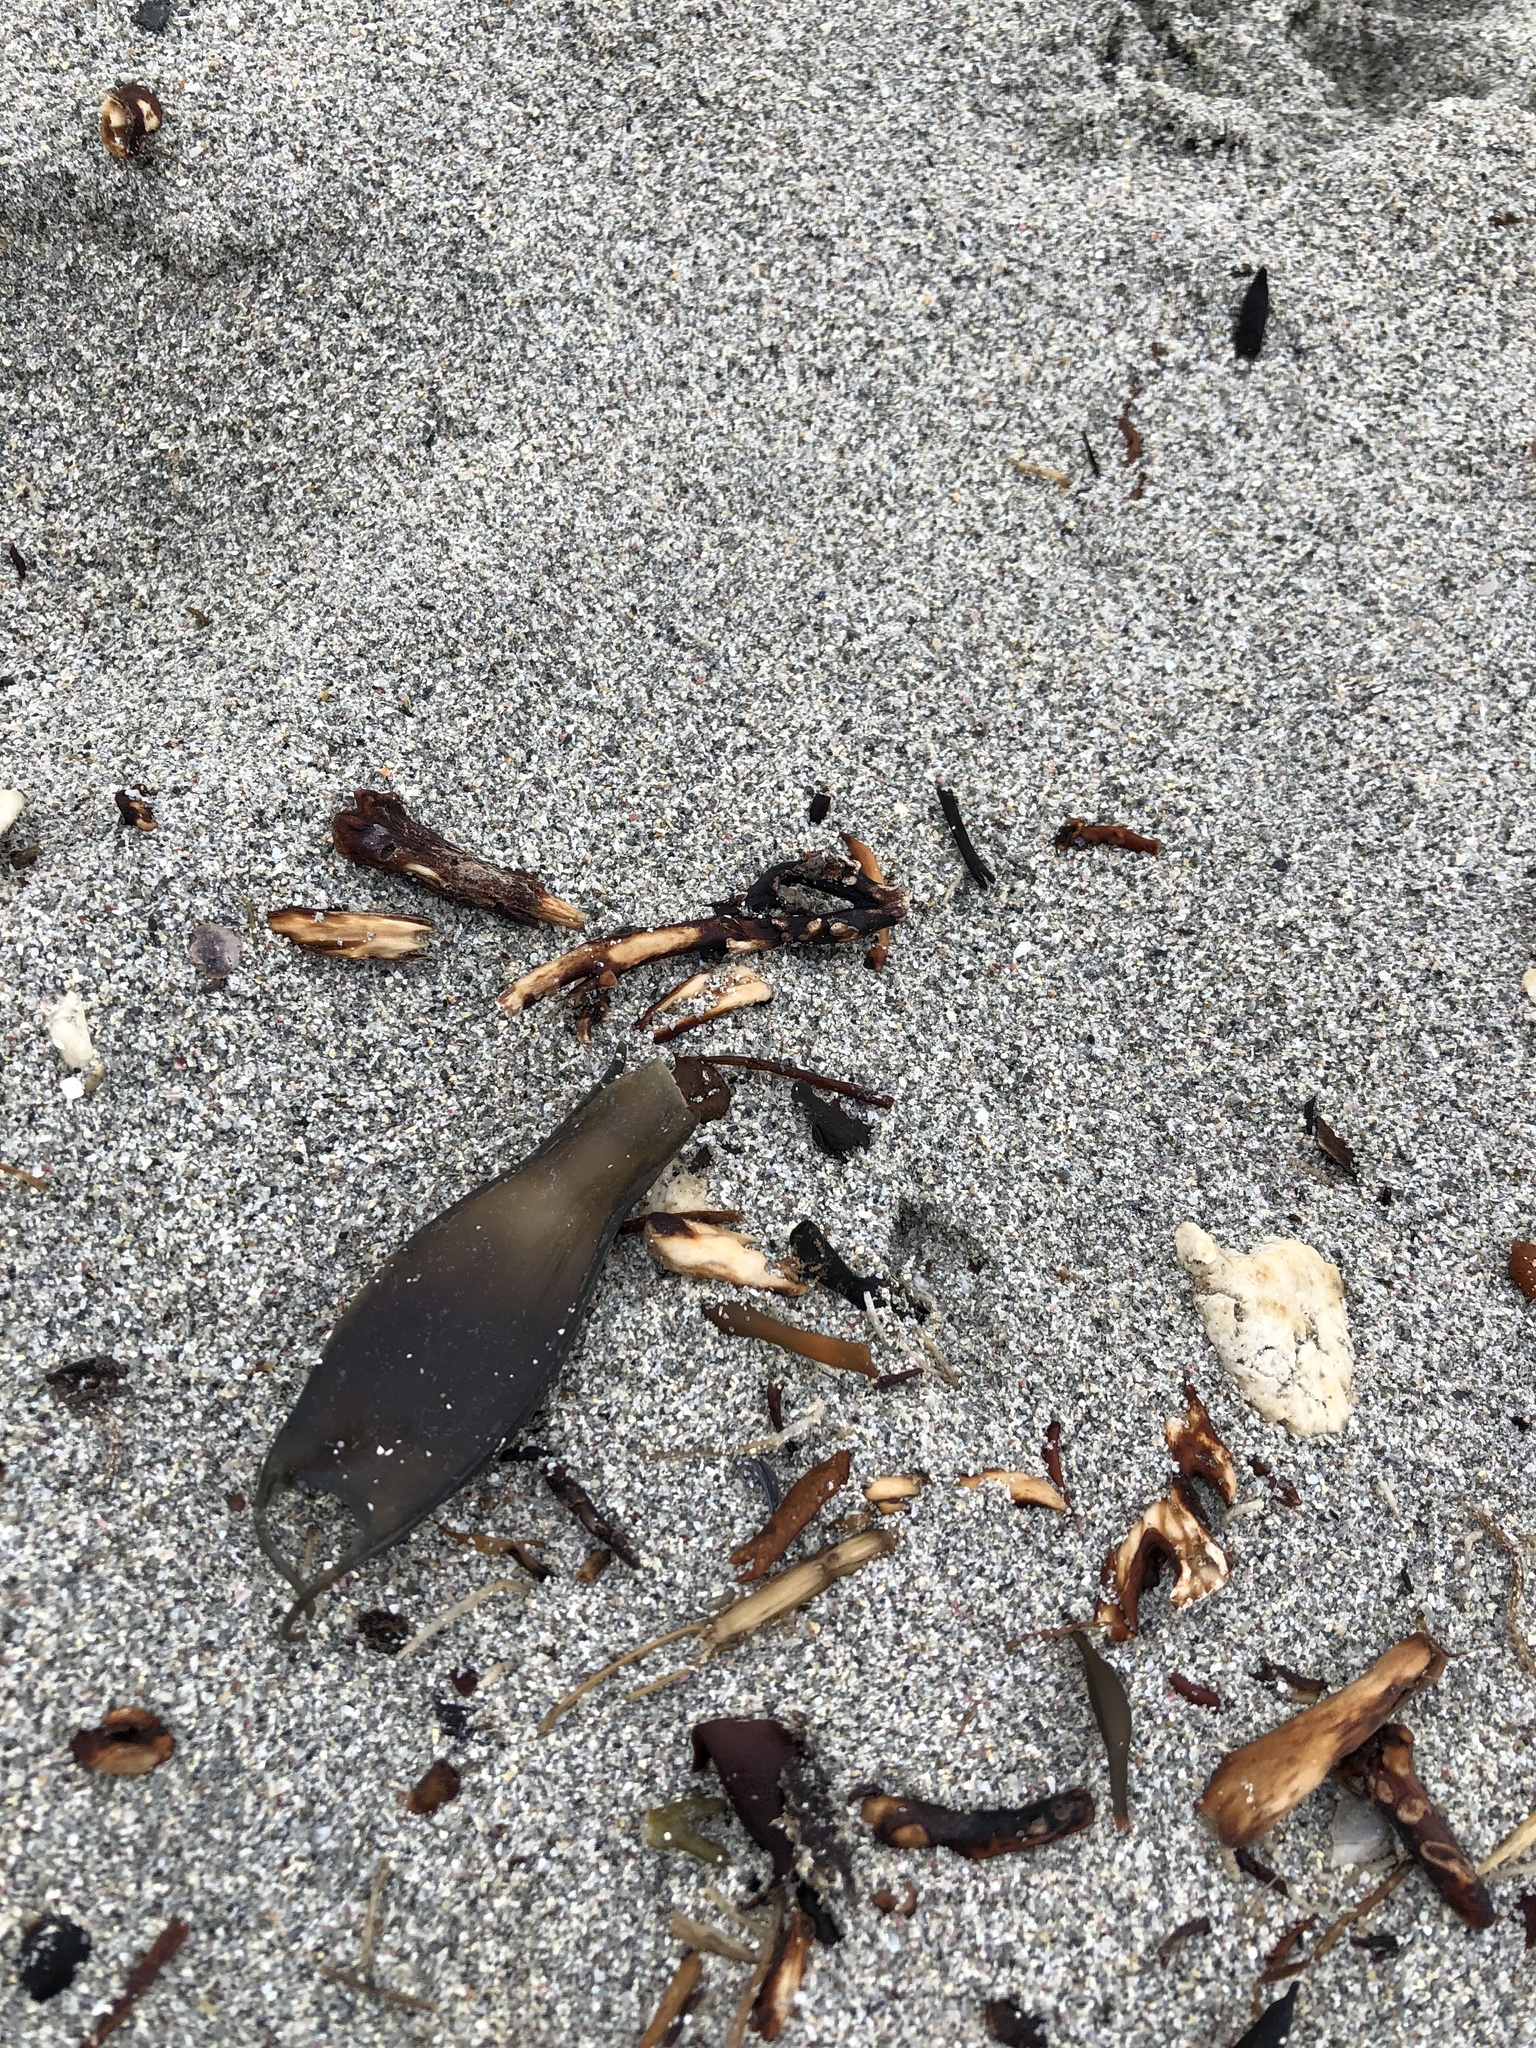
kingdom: Animalia
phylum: Chordata
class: Elasmobranchii
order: Carcharhiniformes
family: Scyliorhinidae
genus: Scyliorhinus
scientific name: Scyliorhinus canicula
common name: Lesser spotted dogfish
